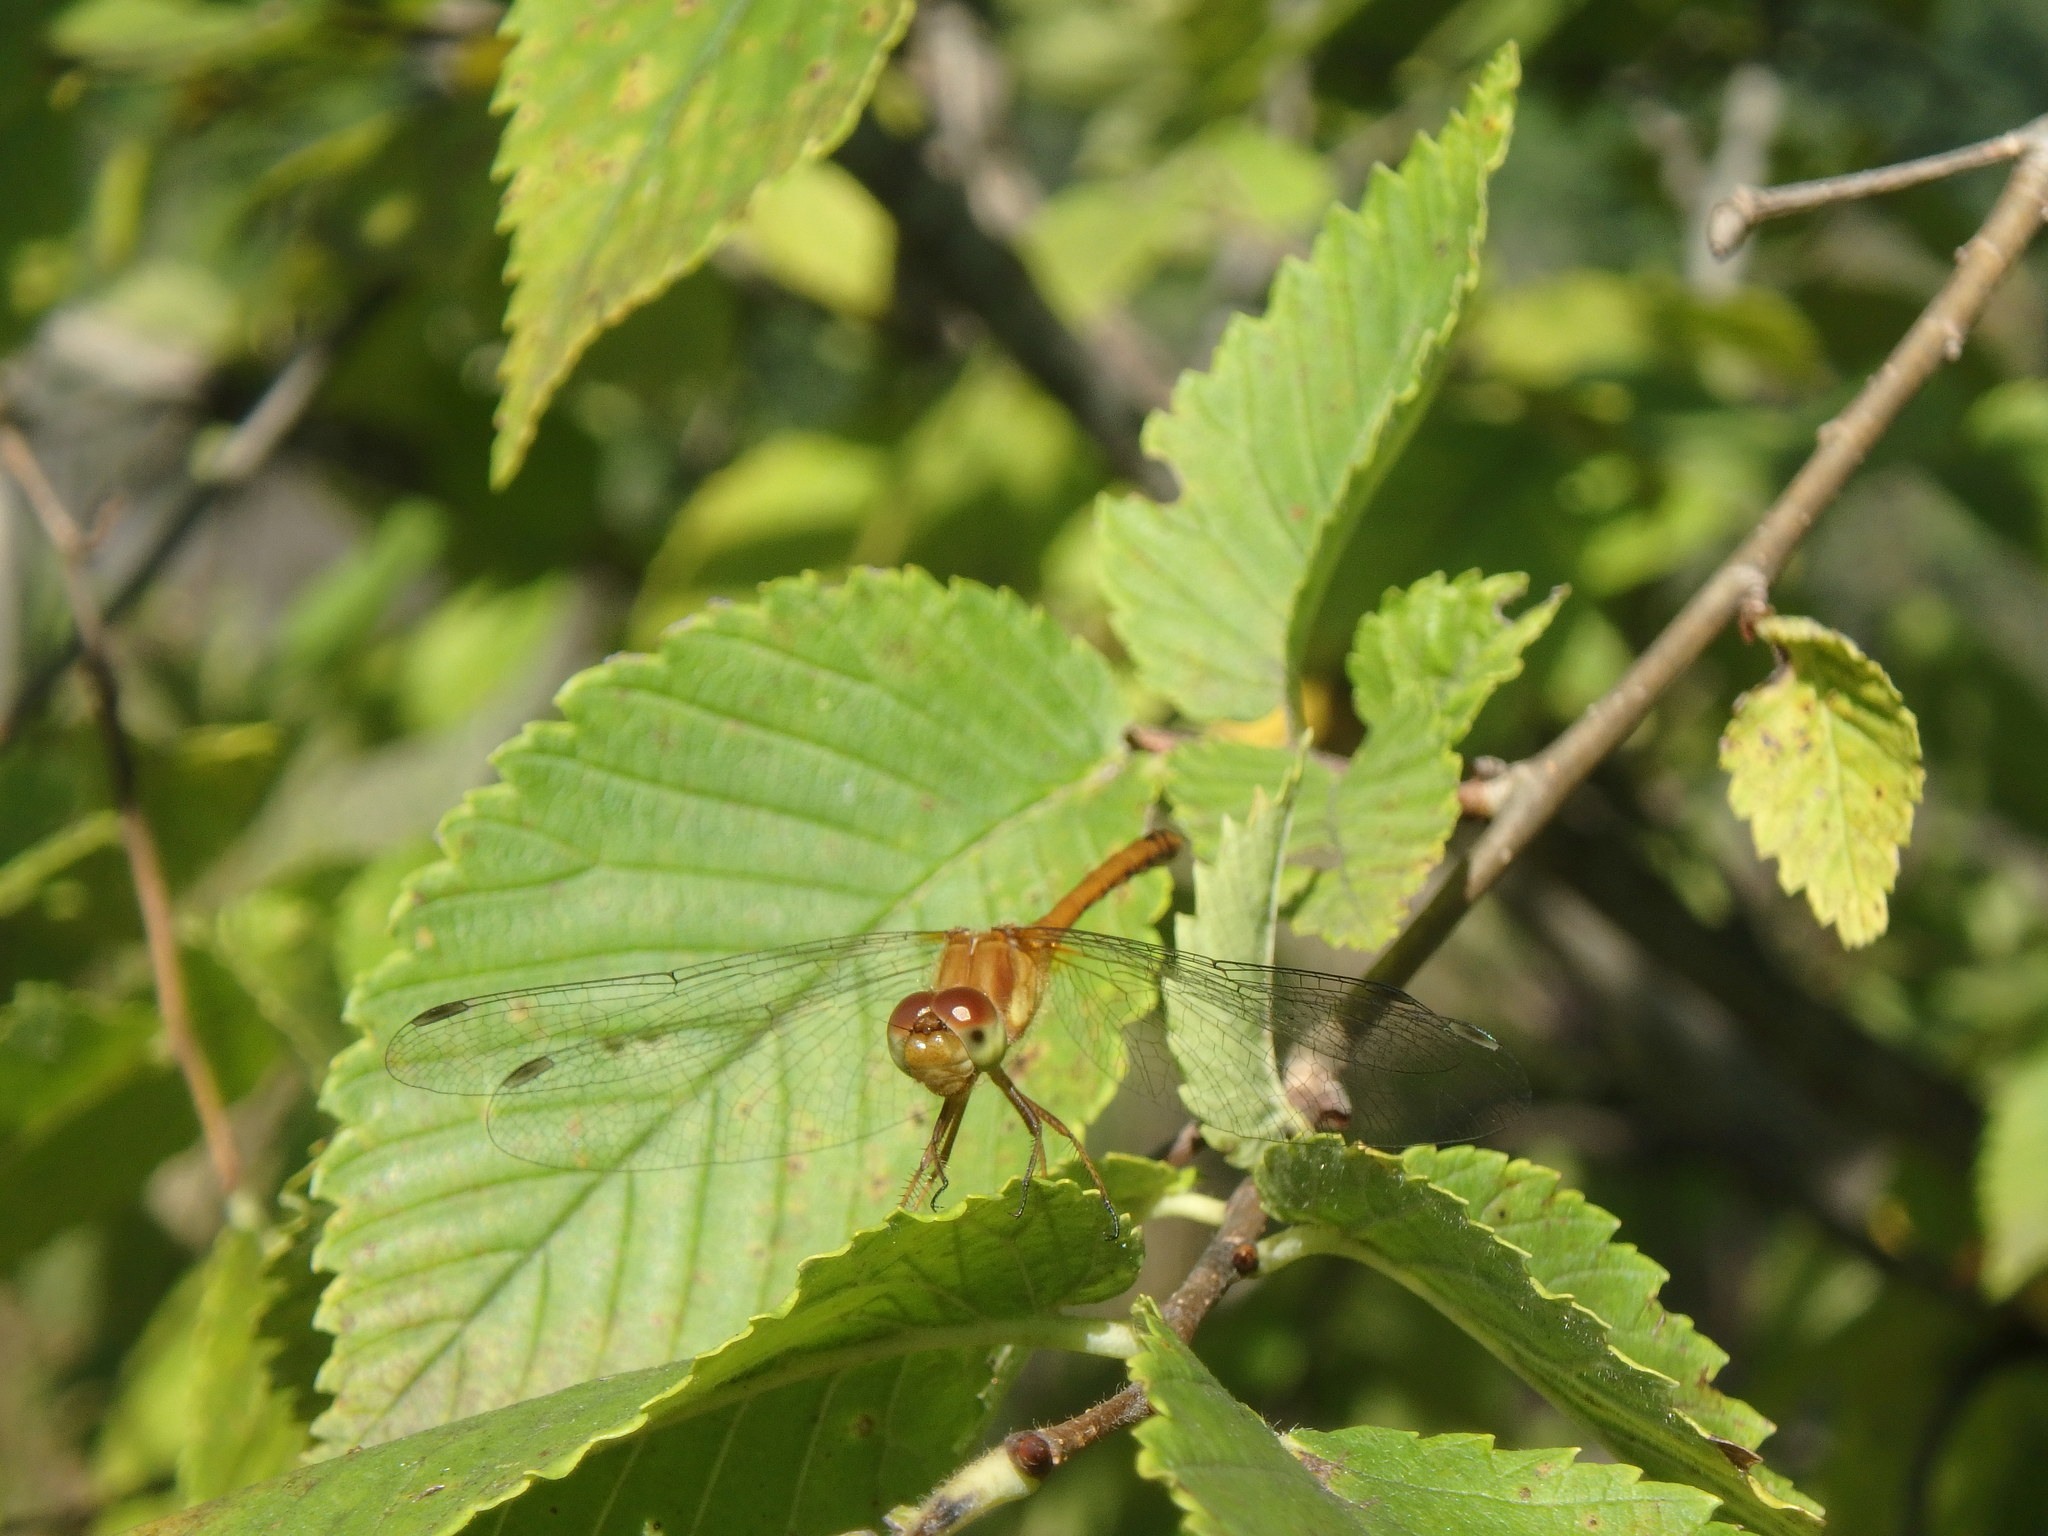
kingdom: Animalia
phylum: Arthropoda
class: Insecta
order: Odonata
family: Libellulidae
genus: Sympetrum
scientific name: Sympetrum vicinum
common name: Autumn meadowhawk
